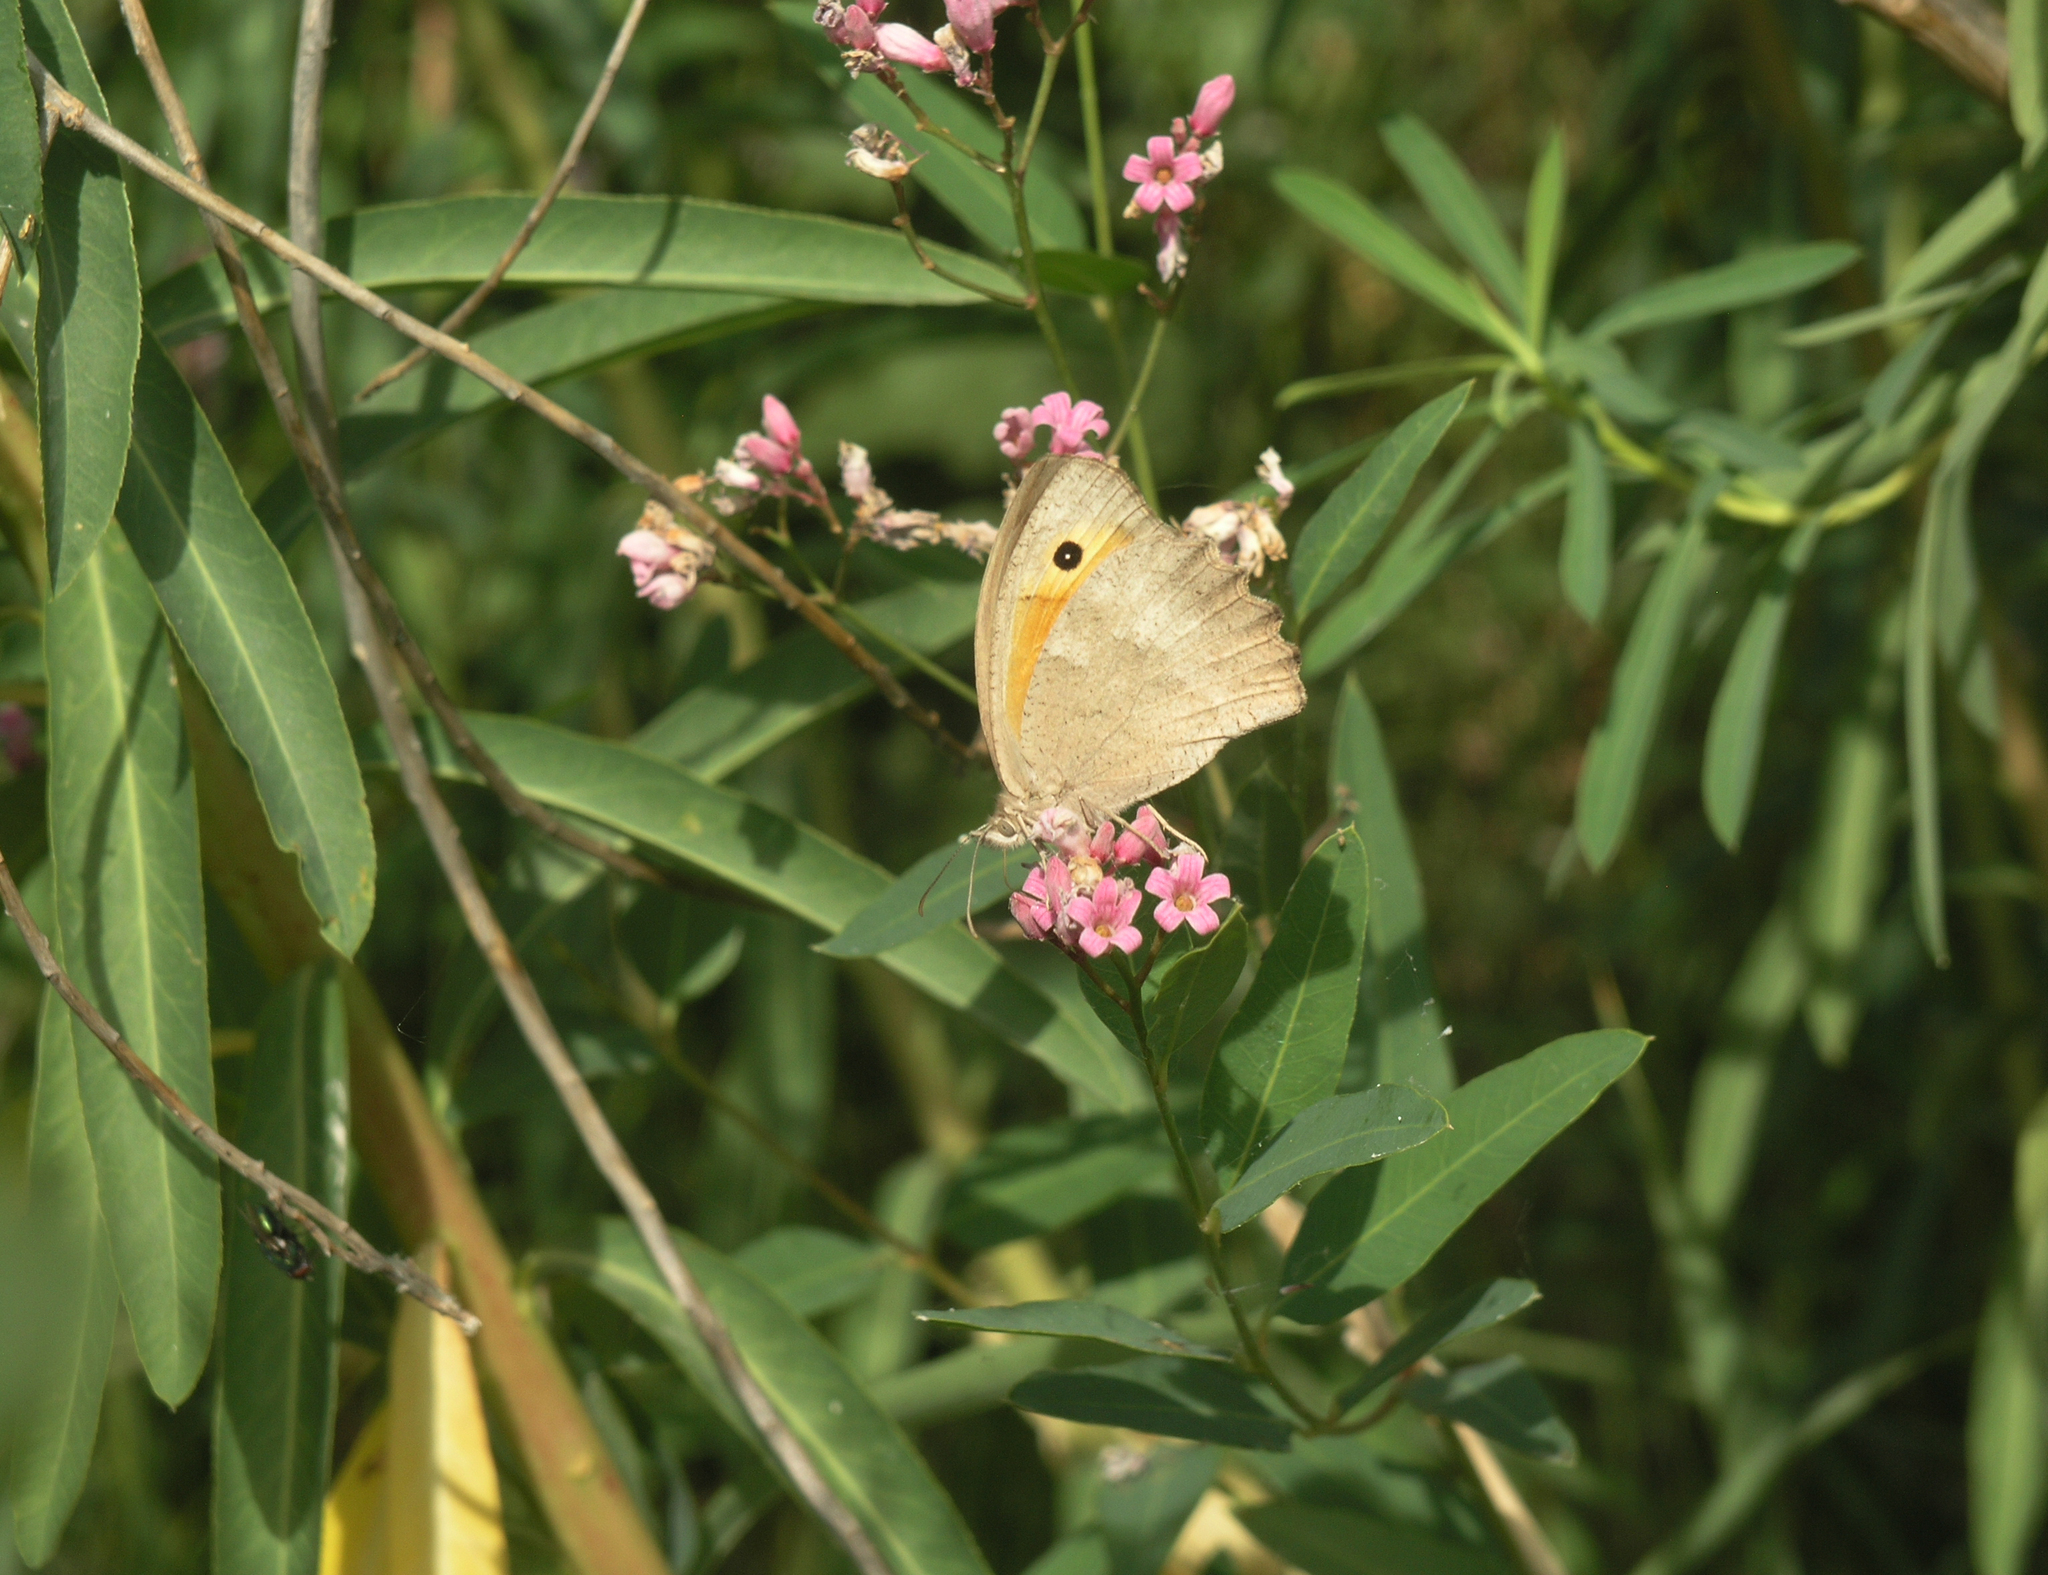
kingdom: Plantae
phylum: Tracheophyta
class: Magnoliopsida
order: Gentianales
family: Apocynaceae
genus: Poacynum
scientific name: Poacynum lancifolium
